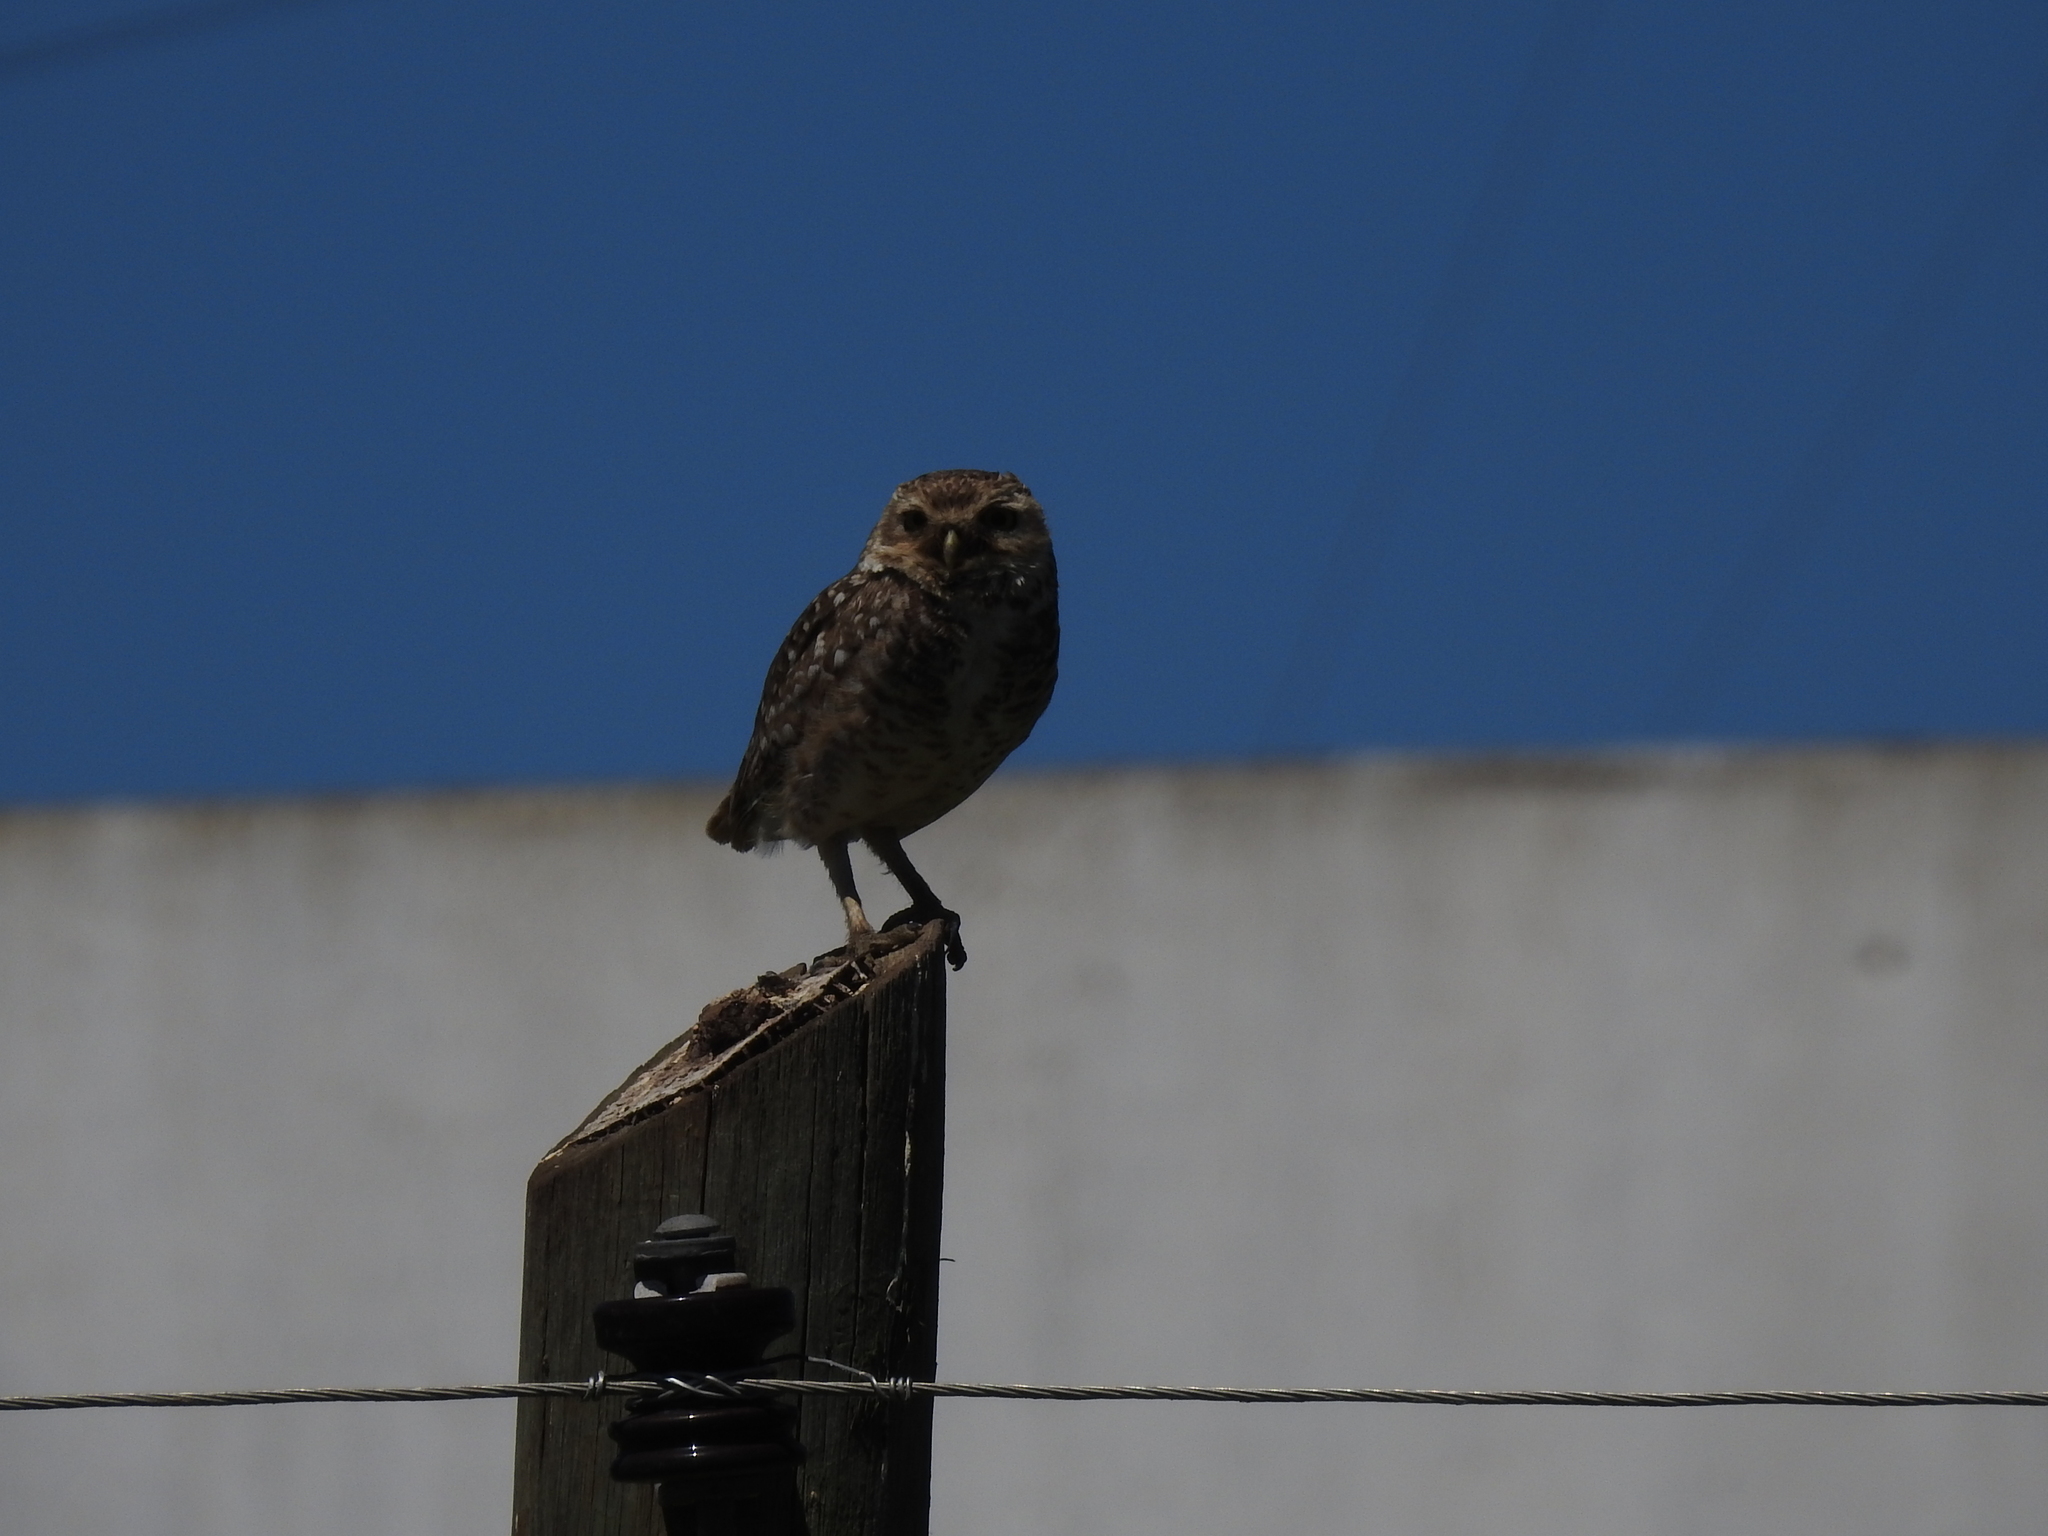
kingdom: Animalia
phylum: Chordata
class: Aves
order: Strigiformes
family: Strigidae
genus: Athene
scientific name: Athene cunicularia
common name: Burrowing owl
